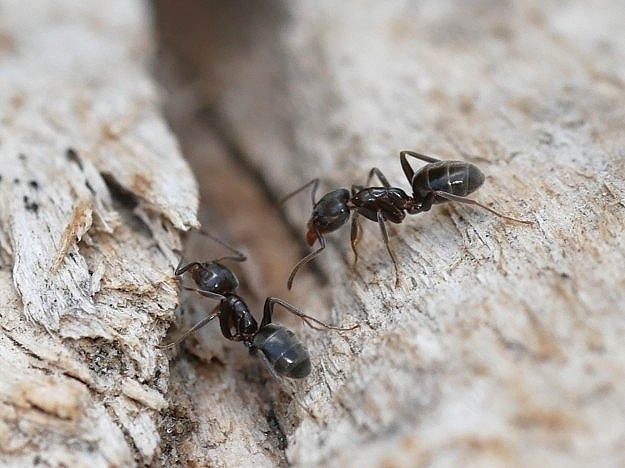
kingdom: Animalia
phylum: Arthropoda
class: Insecta
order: Hymenoptera
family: Formicidae
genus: Liometopum
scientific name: Liometopum luctuosum
